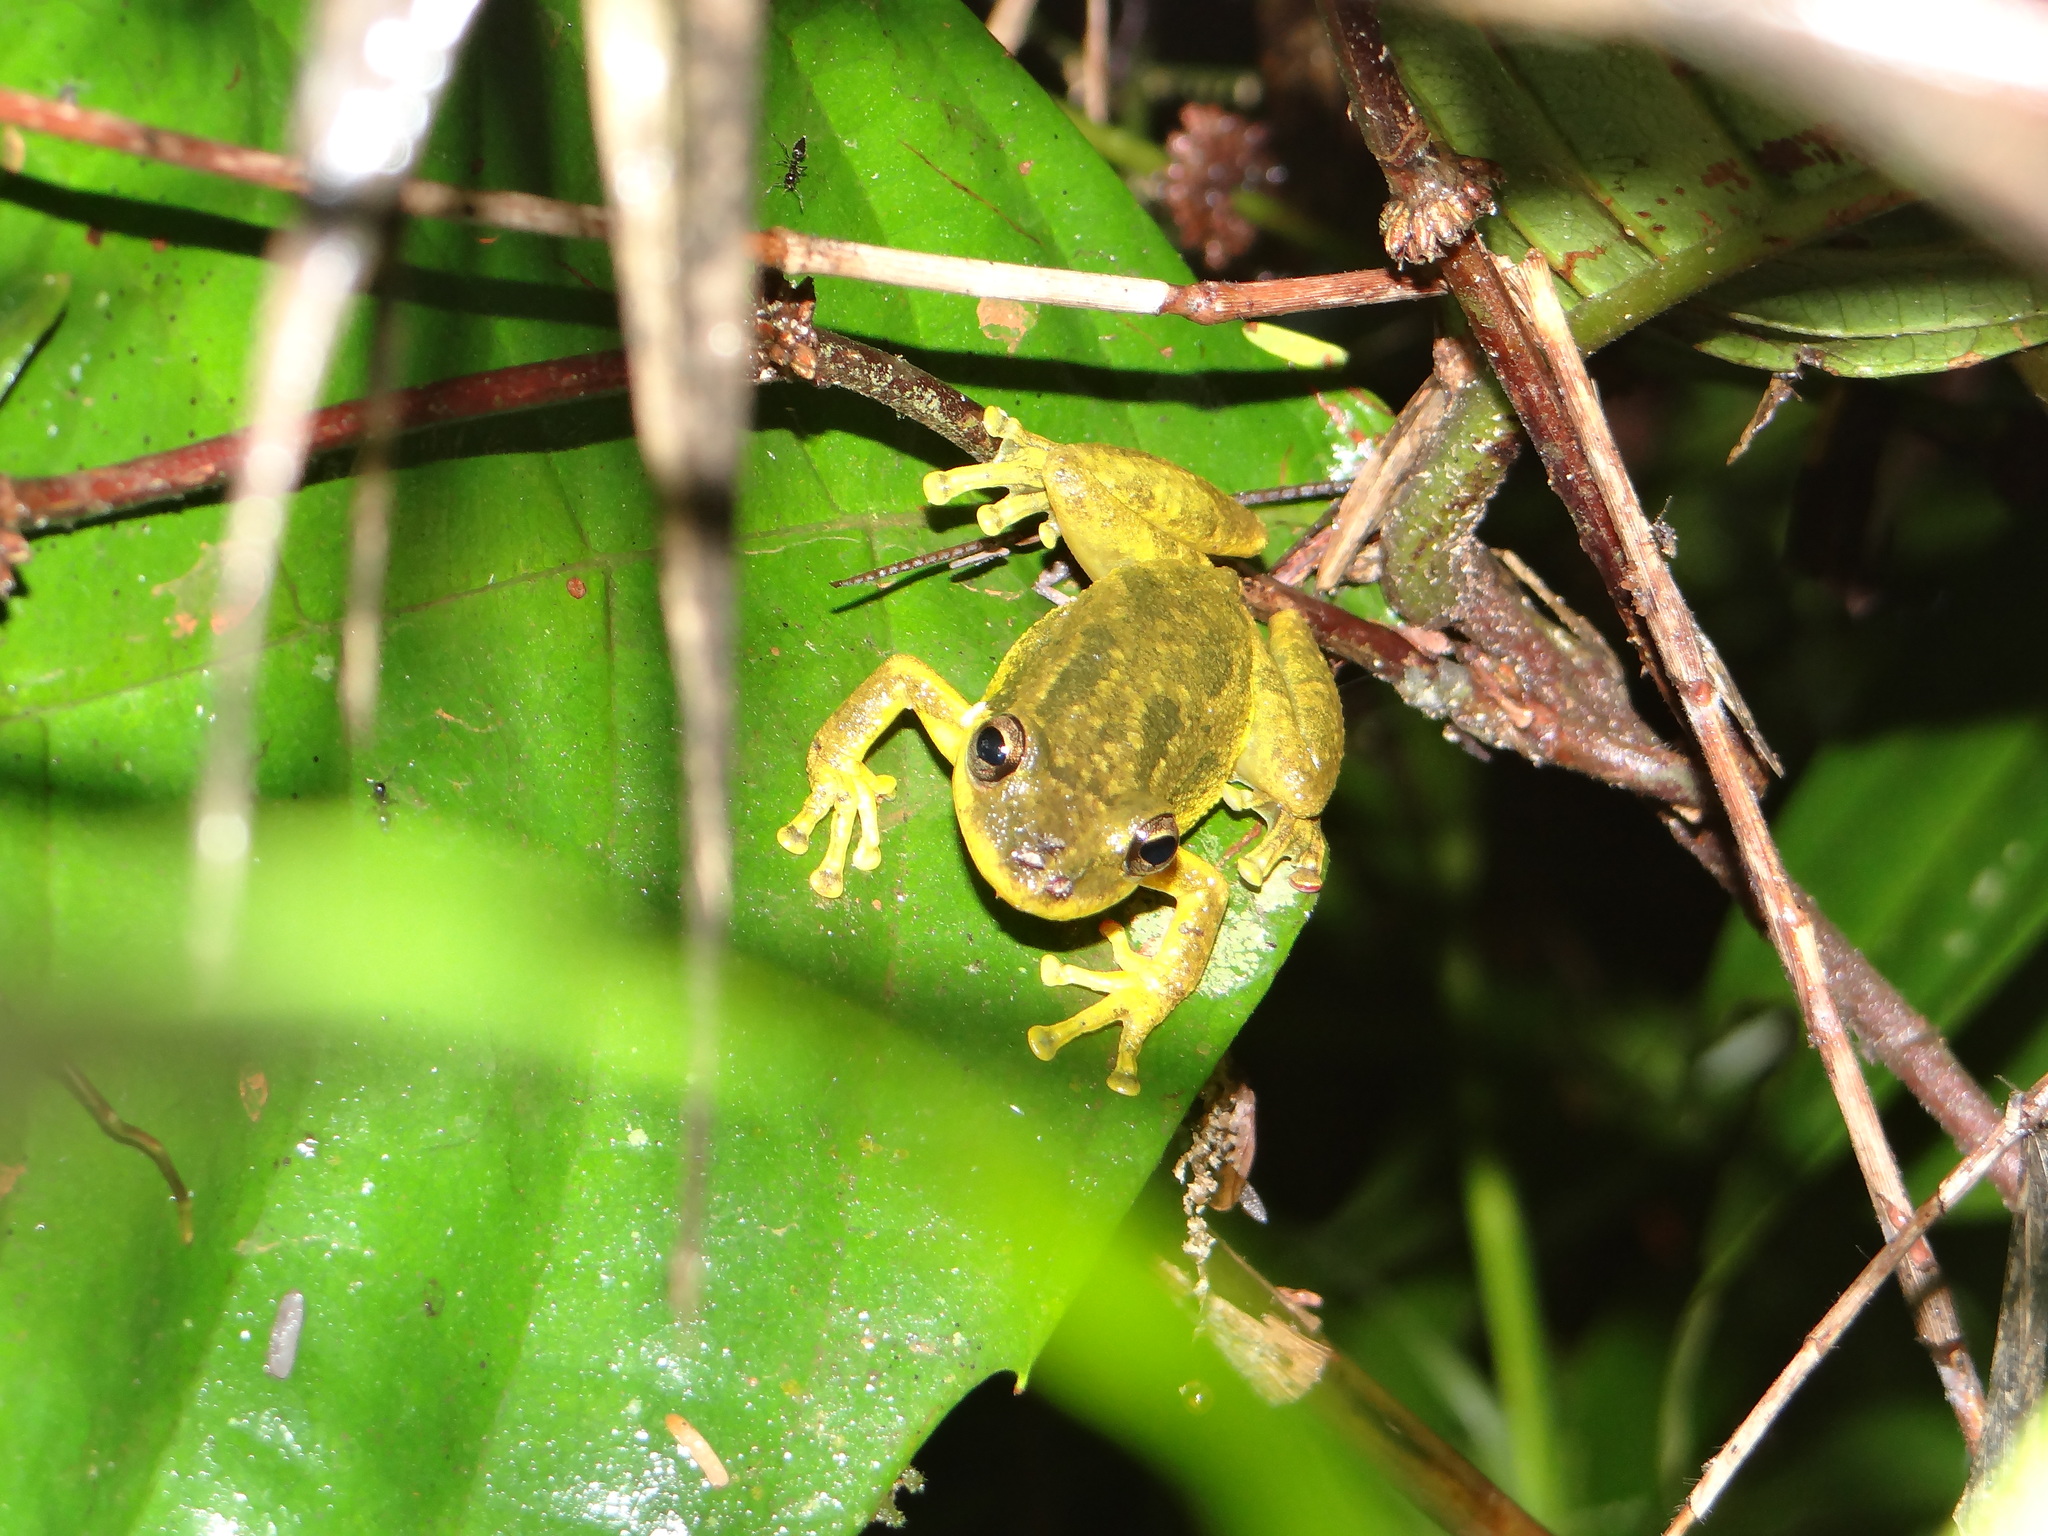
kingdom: Animalia
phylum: Chordata
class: Amphibia
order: Anura
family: Hylidae
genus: Scinax
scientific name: Scinax ruber
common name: Red snouted treefrog
